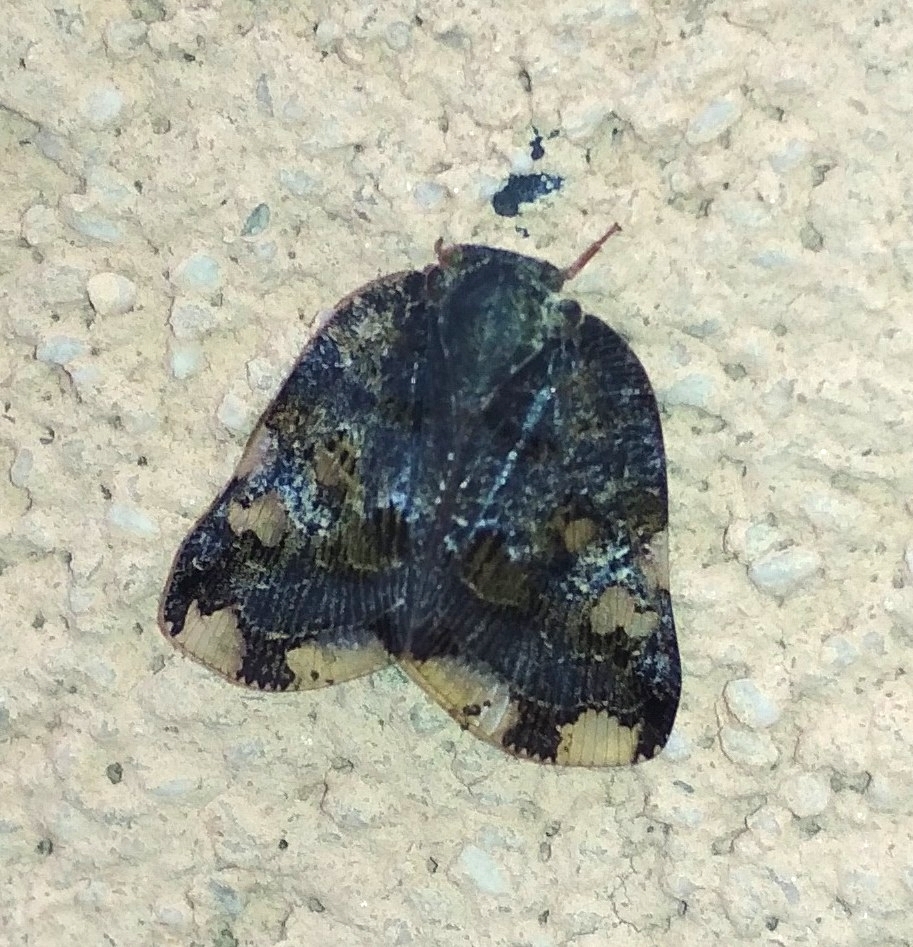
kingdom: Animalia
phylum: Arthropoda
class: Insecta
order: Hemiptera
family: Ricaniidae
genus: Ricania
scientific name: Ricania speculum
